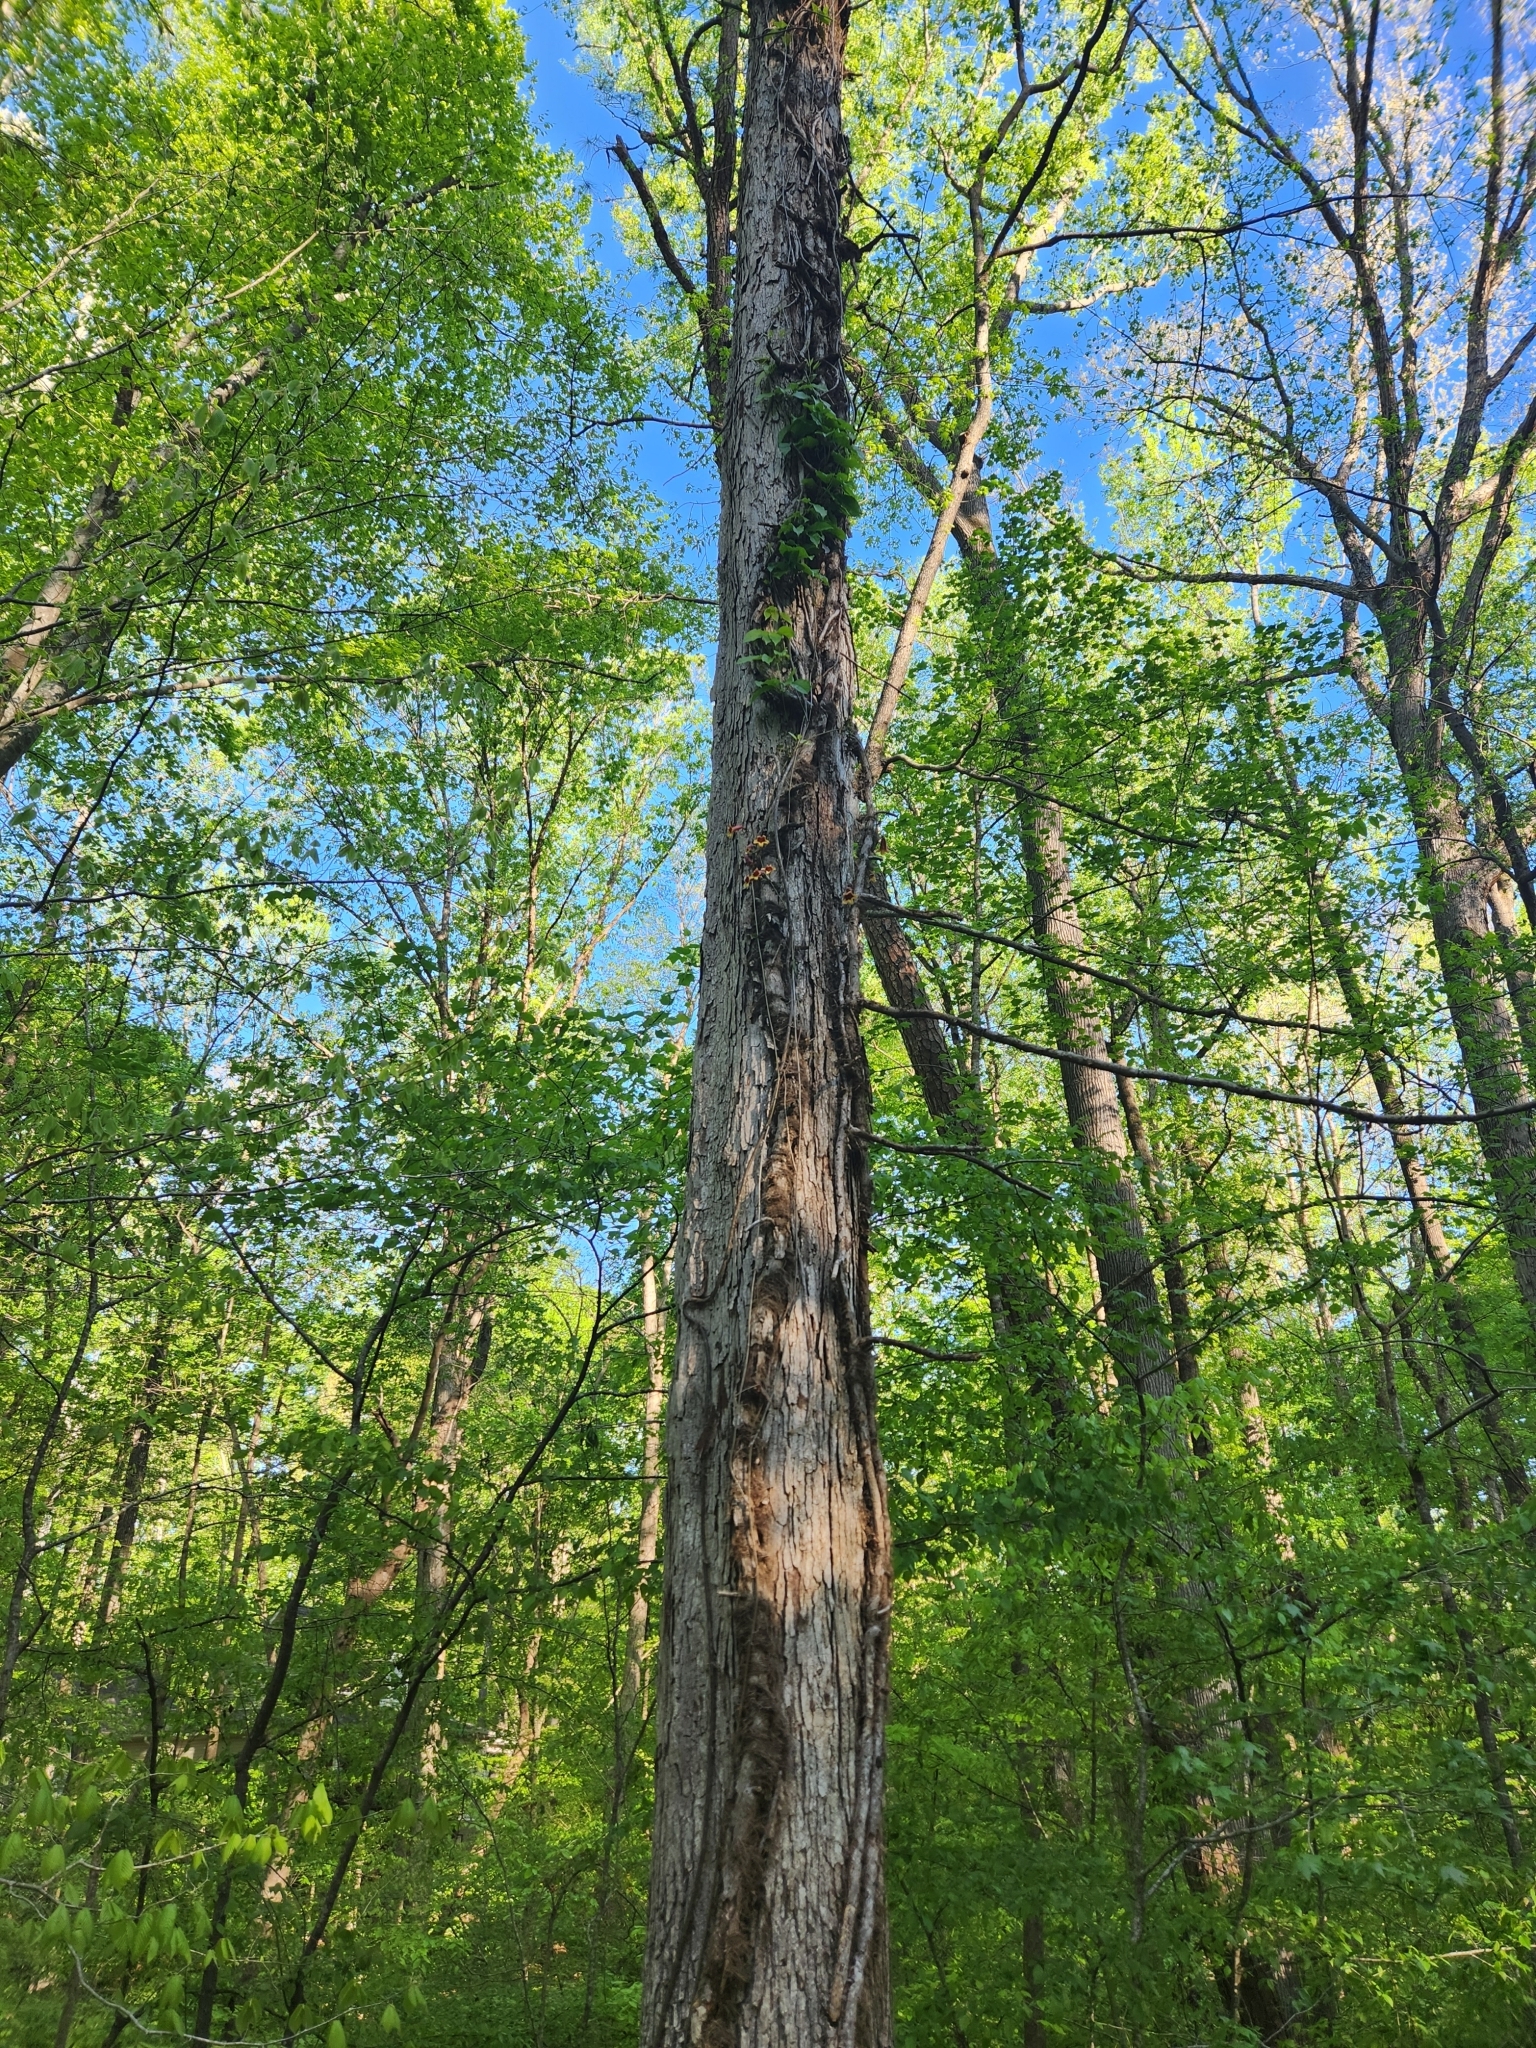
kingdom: Plantae
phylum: Tracheophyta
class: Magnoliopsida
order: Lamiales
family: Bignoniaceae
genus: Bignonia
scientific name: Bignonia capreolata
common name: Crossvine
